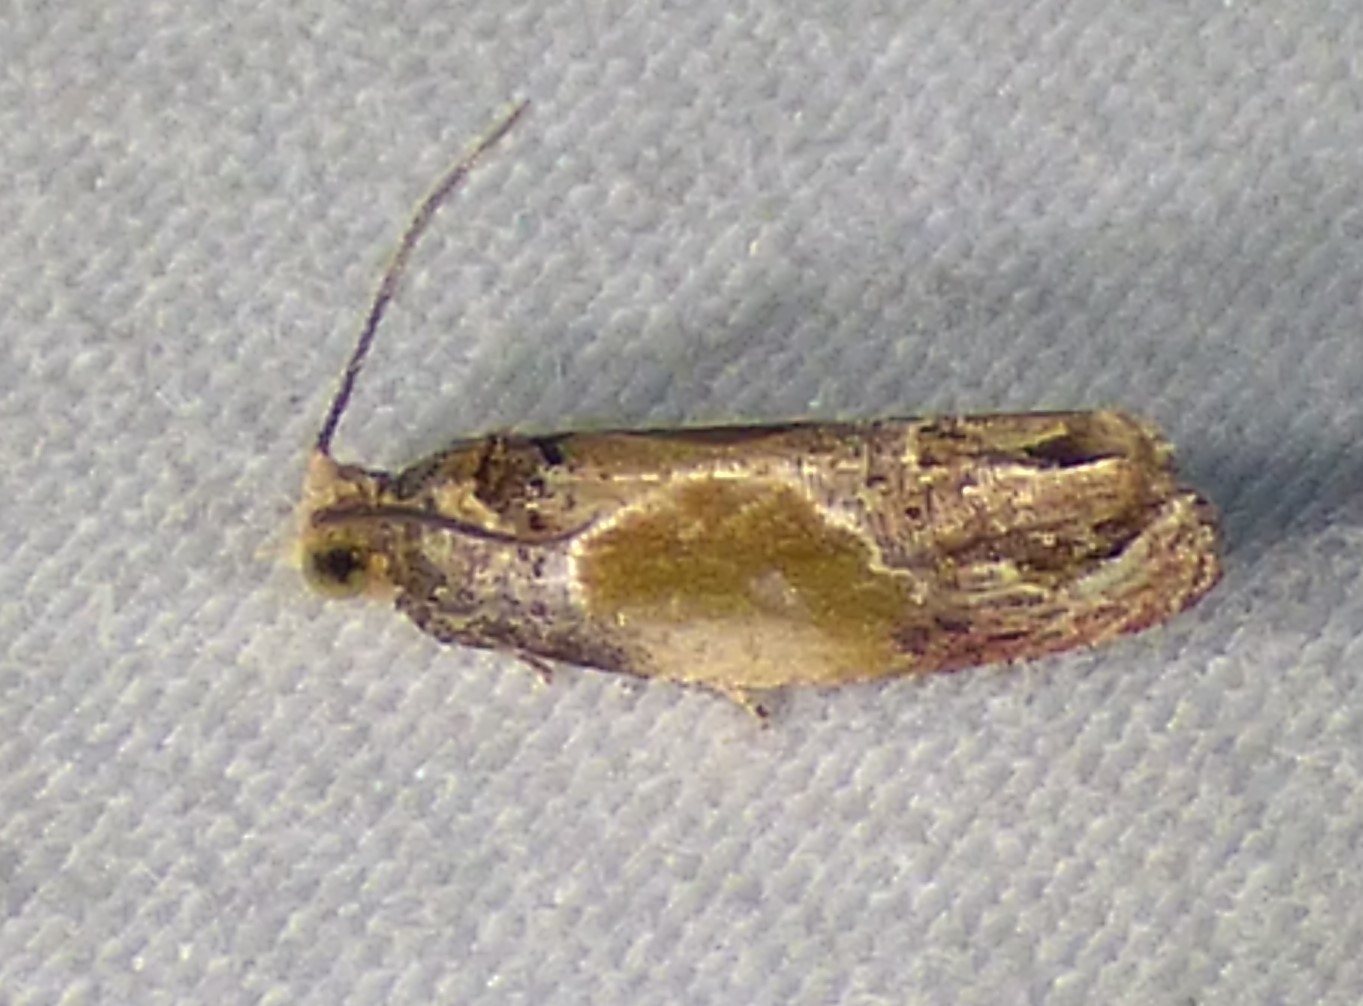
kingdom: Animalia
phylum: Arthropoda
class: Insecta
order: Lepidoptera
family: Tortricidae
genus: Eumarozia
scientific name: Eumarozia malachitana
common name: Sculptured moth
